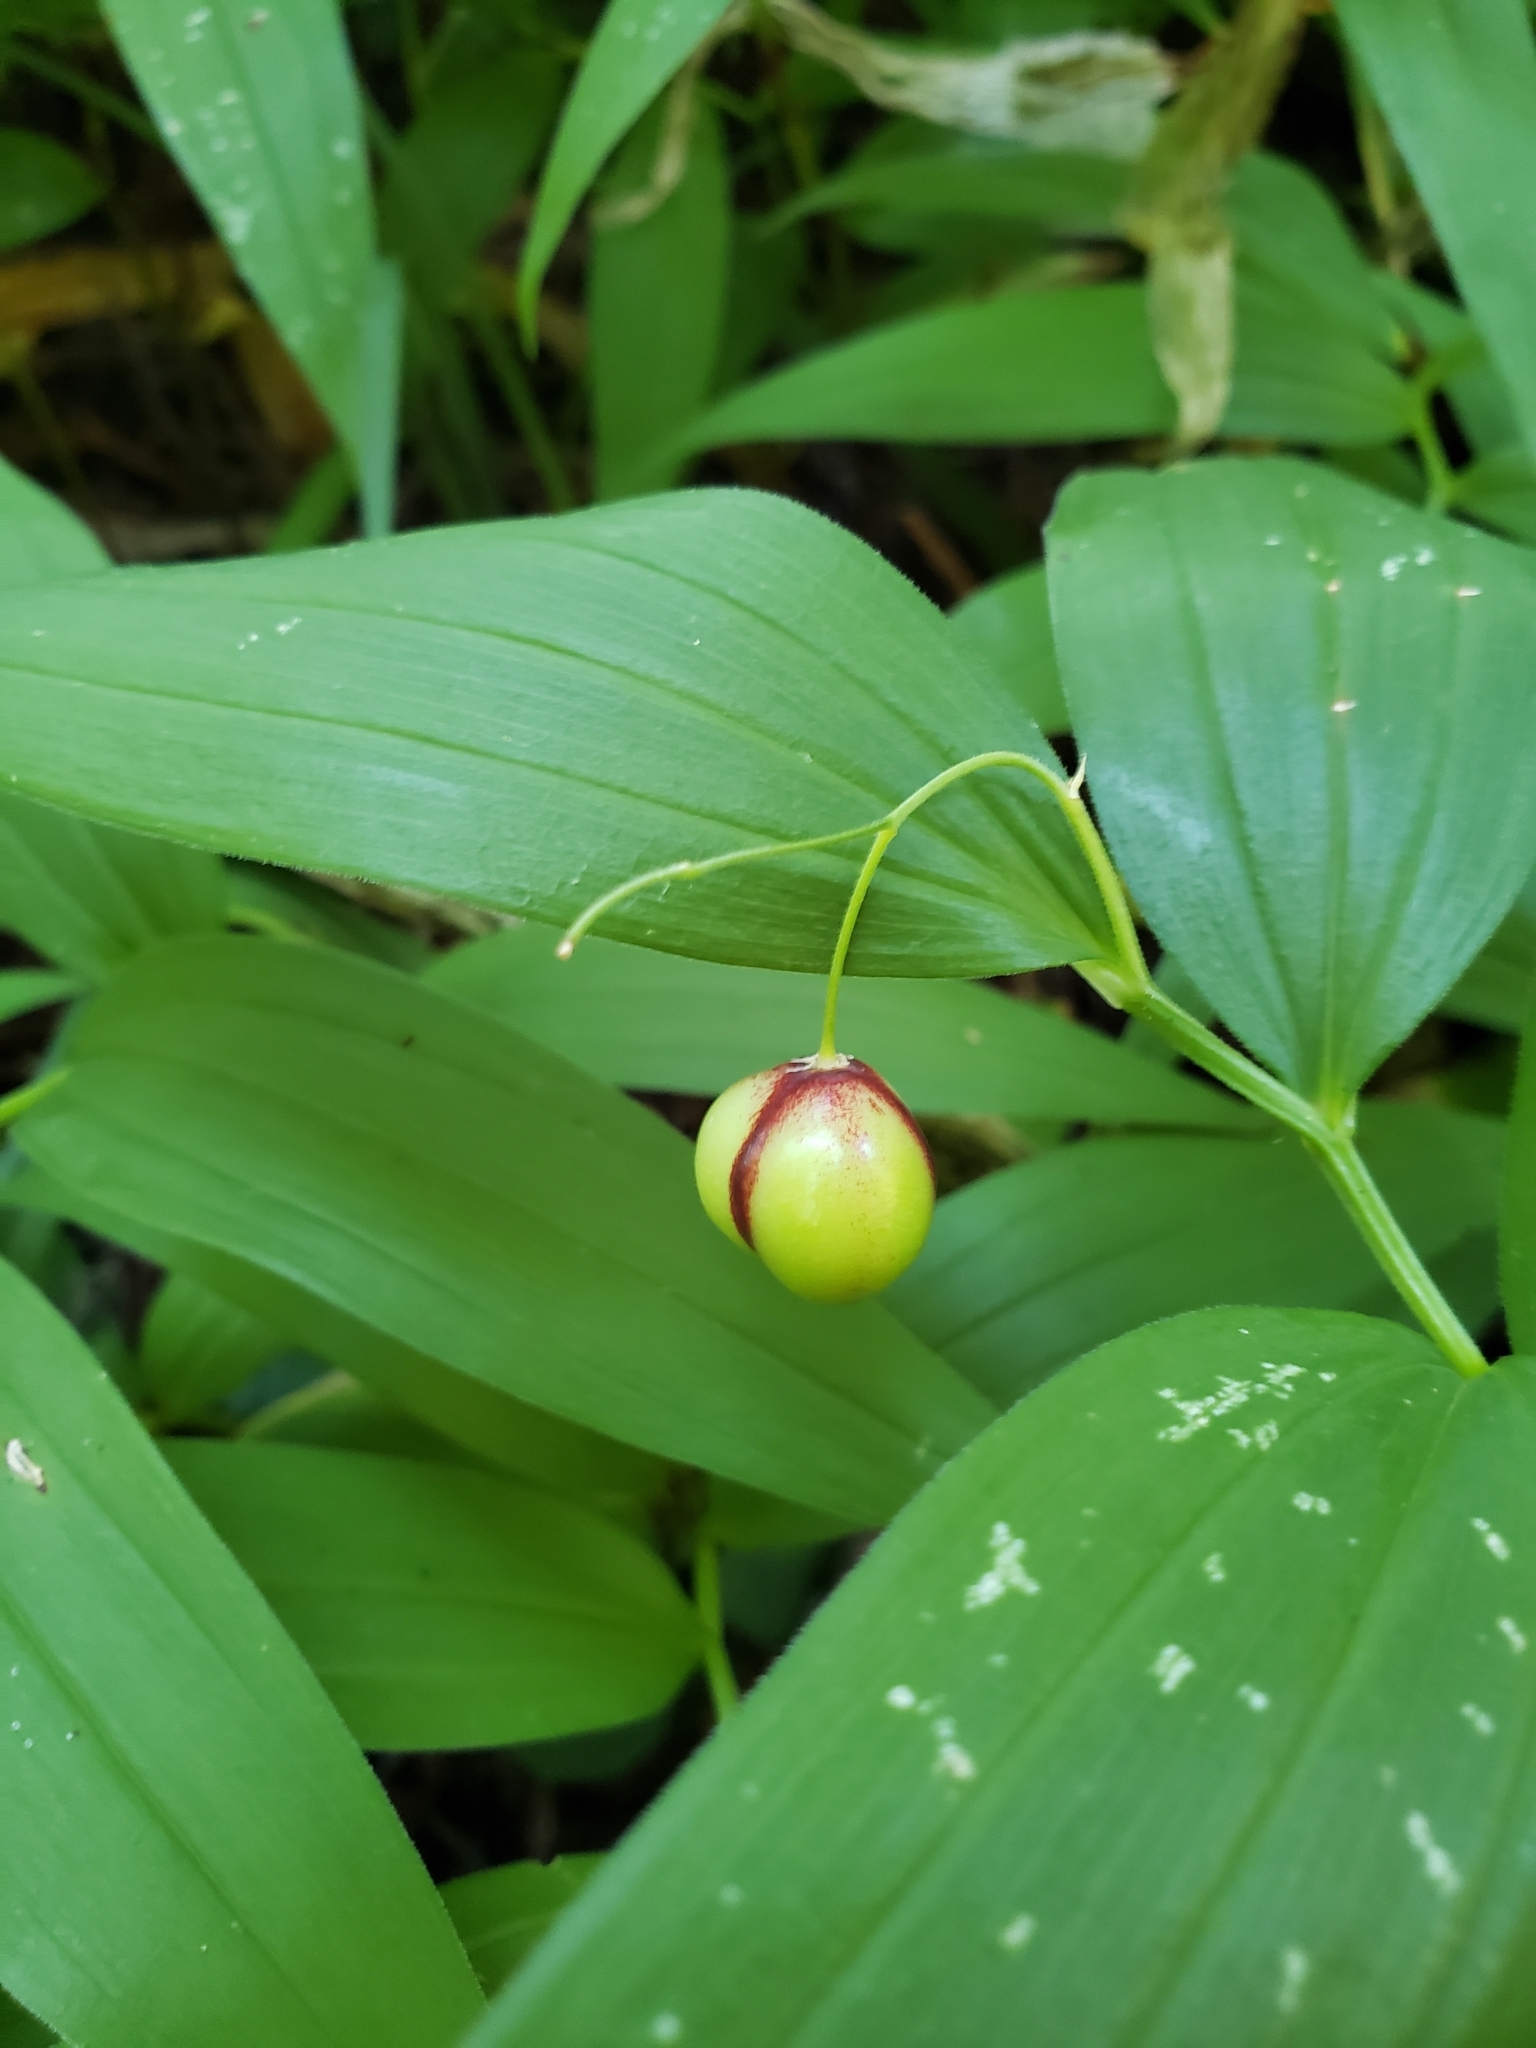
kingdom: Plantae
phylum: Tracheophyta
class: Liliopsida
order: Asparagales
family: Asparagaceae
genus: Maianthemum
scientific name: Maianthemum stellatum
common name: Little false solomon's seal
